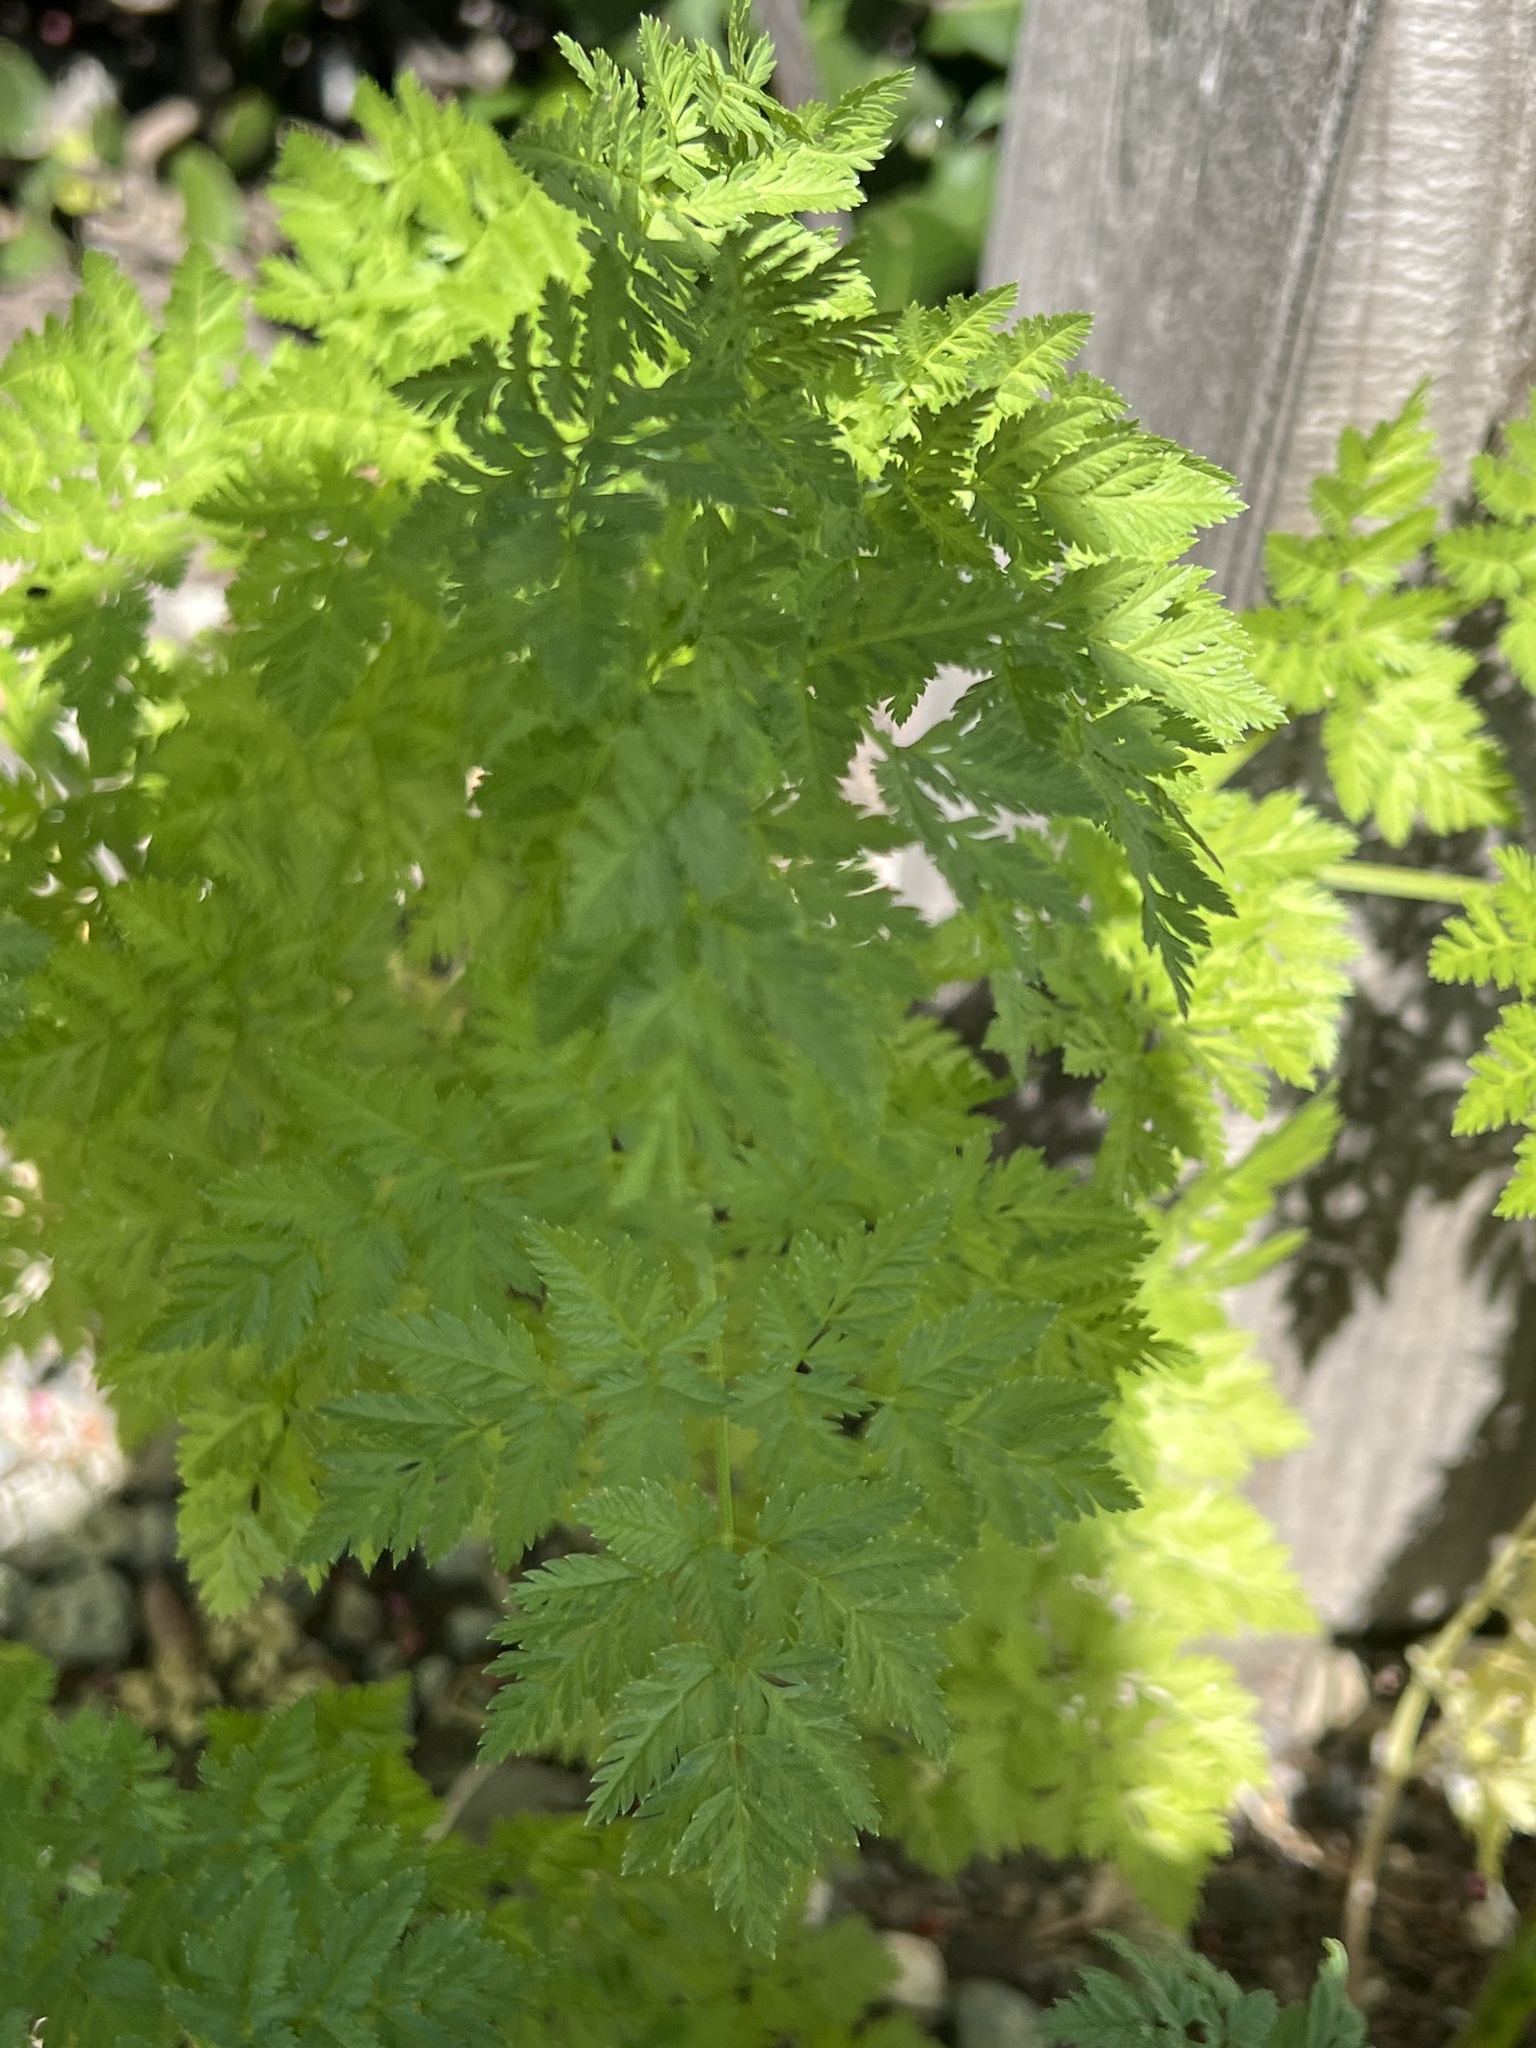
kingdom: Plantae
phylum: Tracheophyta
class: Magnoliopsida
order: Apiales
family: Apiaceae
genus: Conium
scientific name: Conium maculatum
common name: Hemlock
